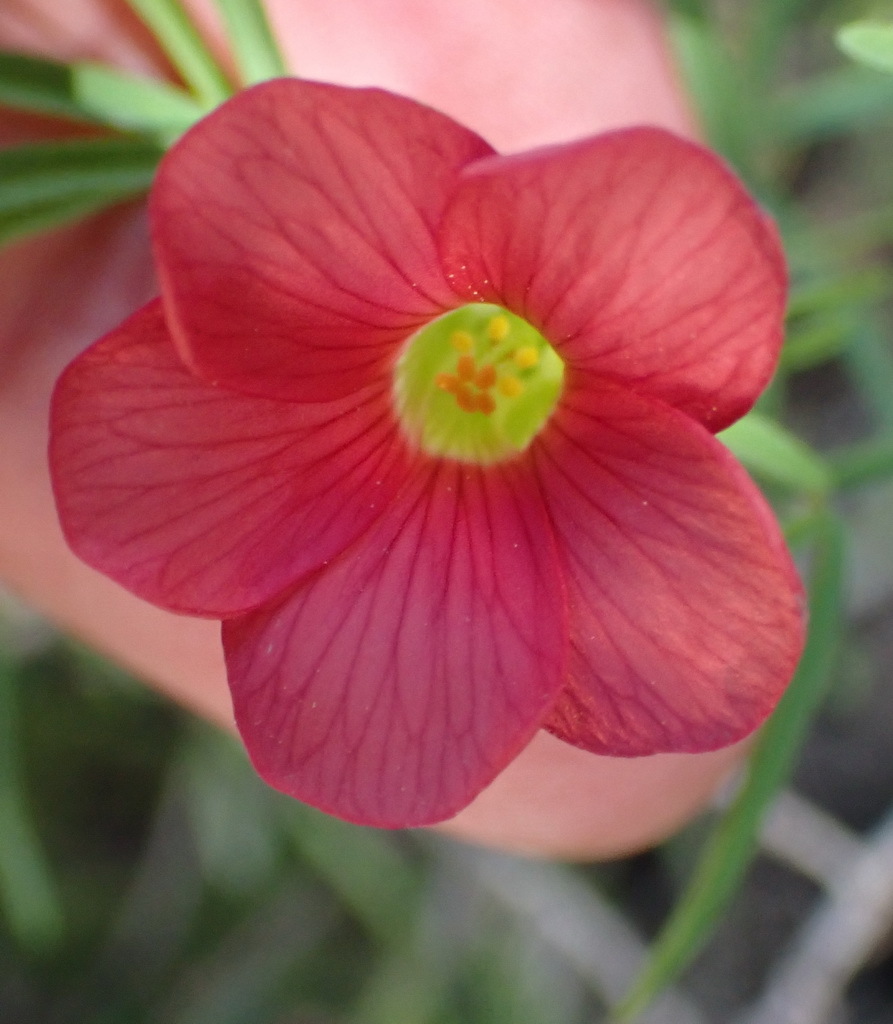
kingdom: Plantae
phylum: Tracheophyta
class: Magnoliopsida
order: Oxalidales
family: Oxalidaceae
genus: Oxalis
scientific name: Oxalis pendulifolia
